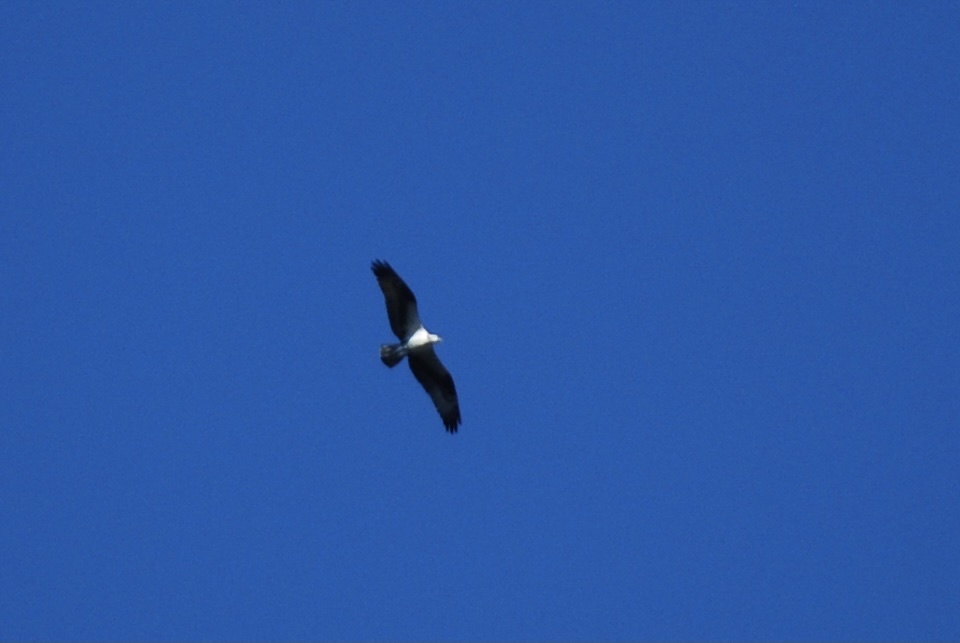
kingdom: Animalia
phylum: Chordata
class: Aves
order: Accipitriformes
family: Pandionidae
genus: Pandion
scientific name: Pandion haliaetus
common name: Osprey
